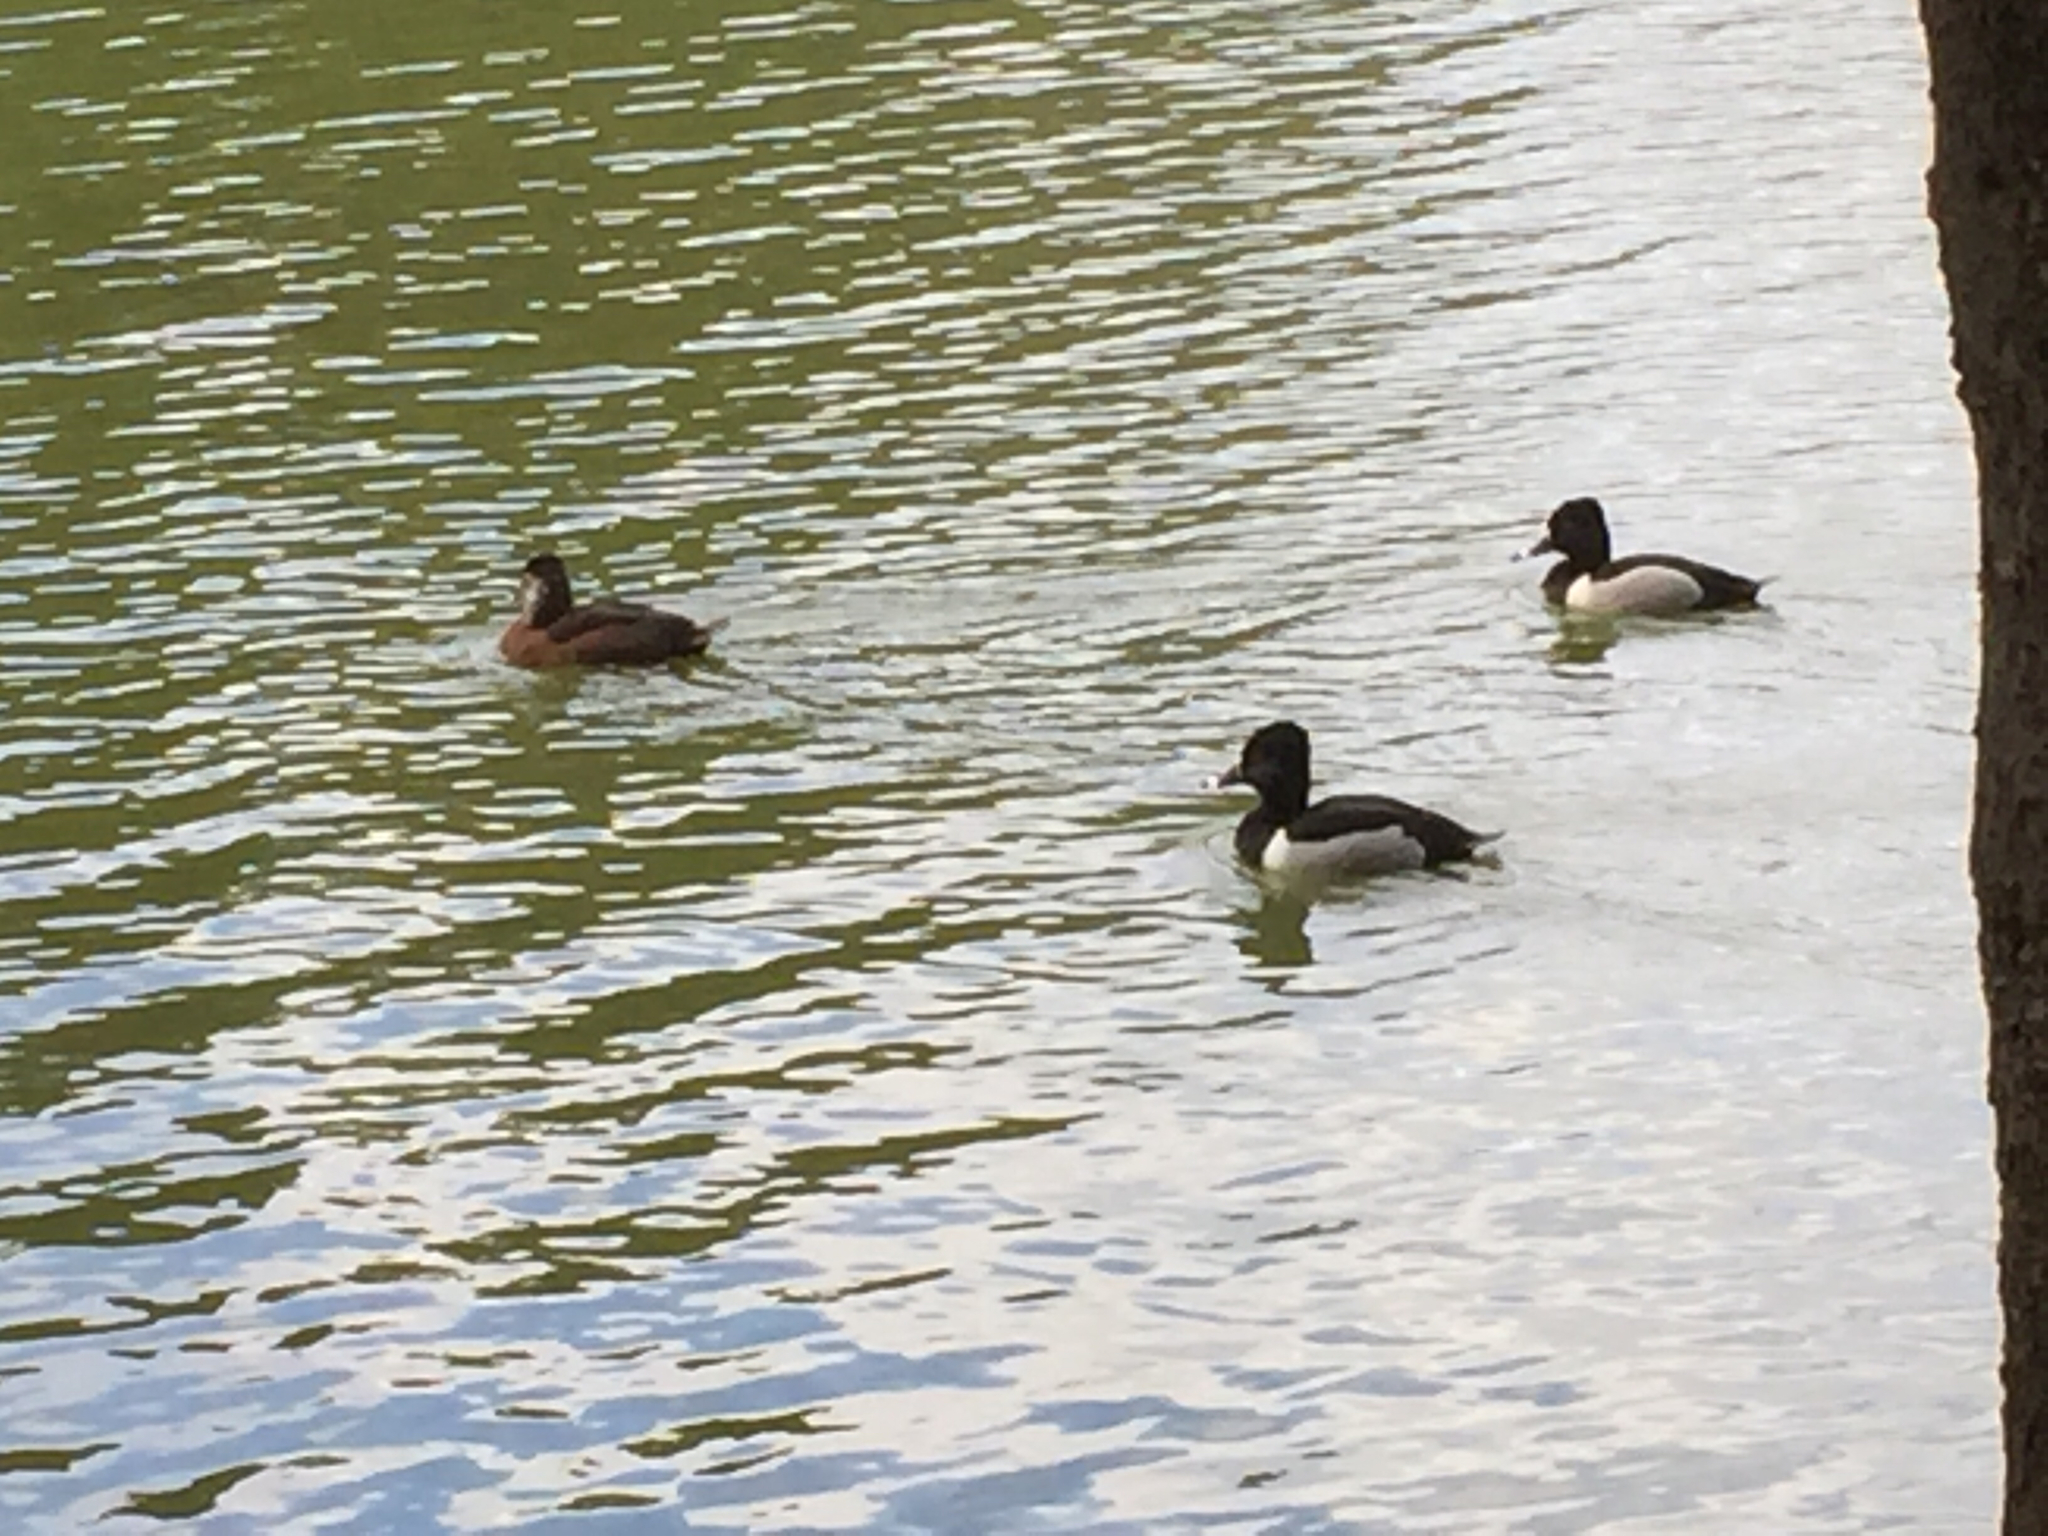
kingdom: Animalia
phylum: Chordata
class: Aves
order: Anseriformes
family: Anatidae
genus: Aythya
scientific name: Aythya collaris
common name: Ring-necked duck
